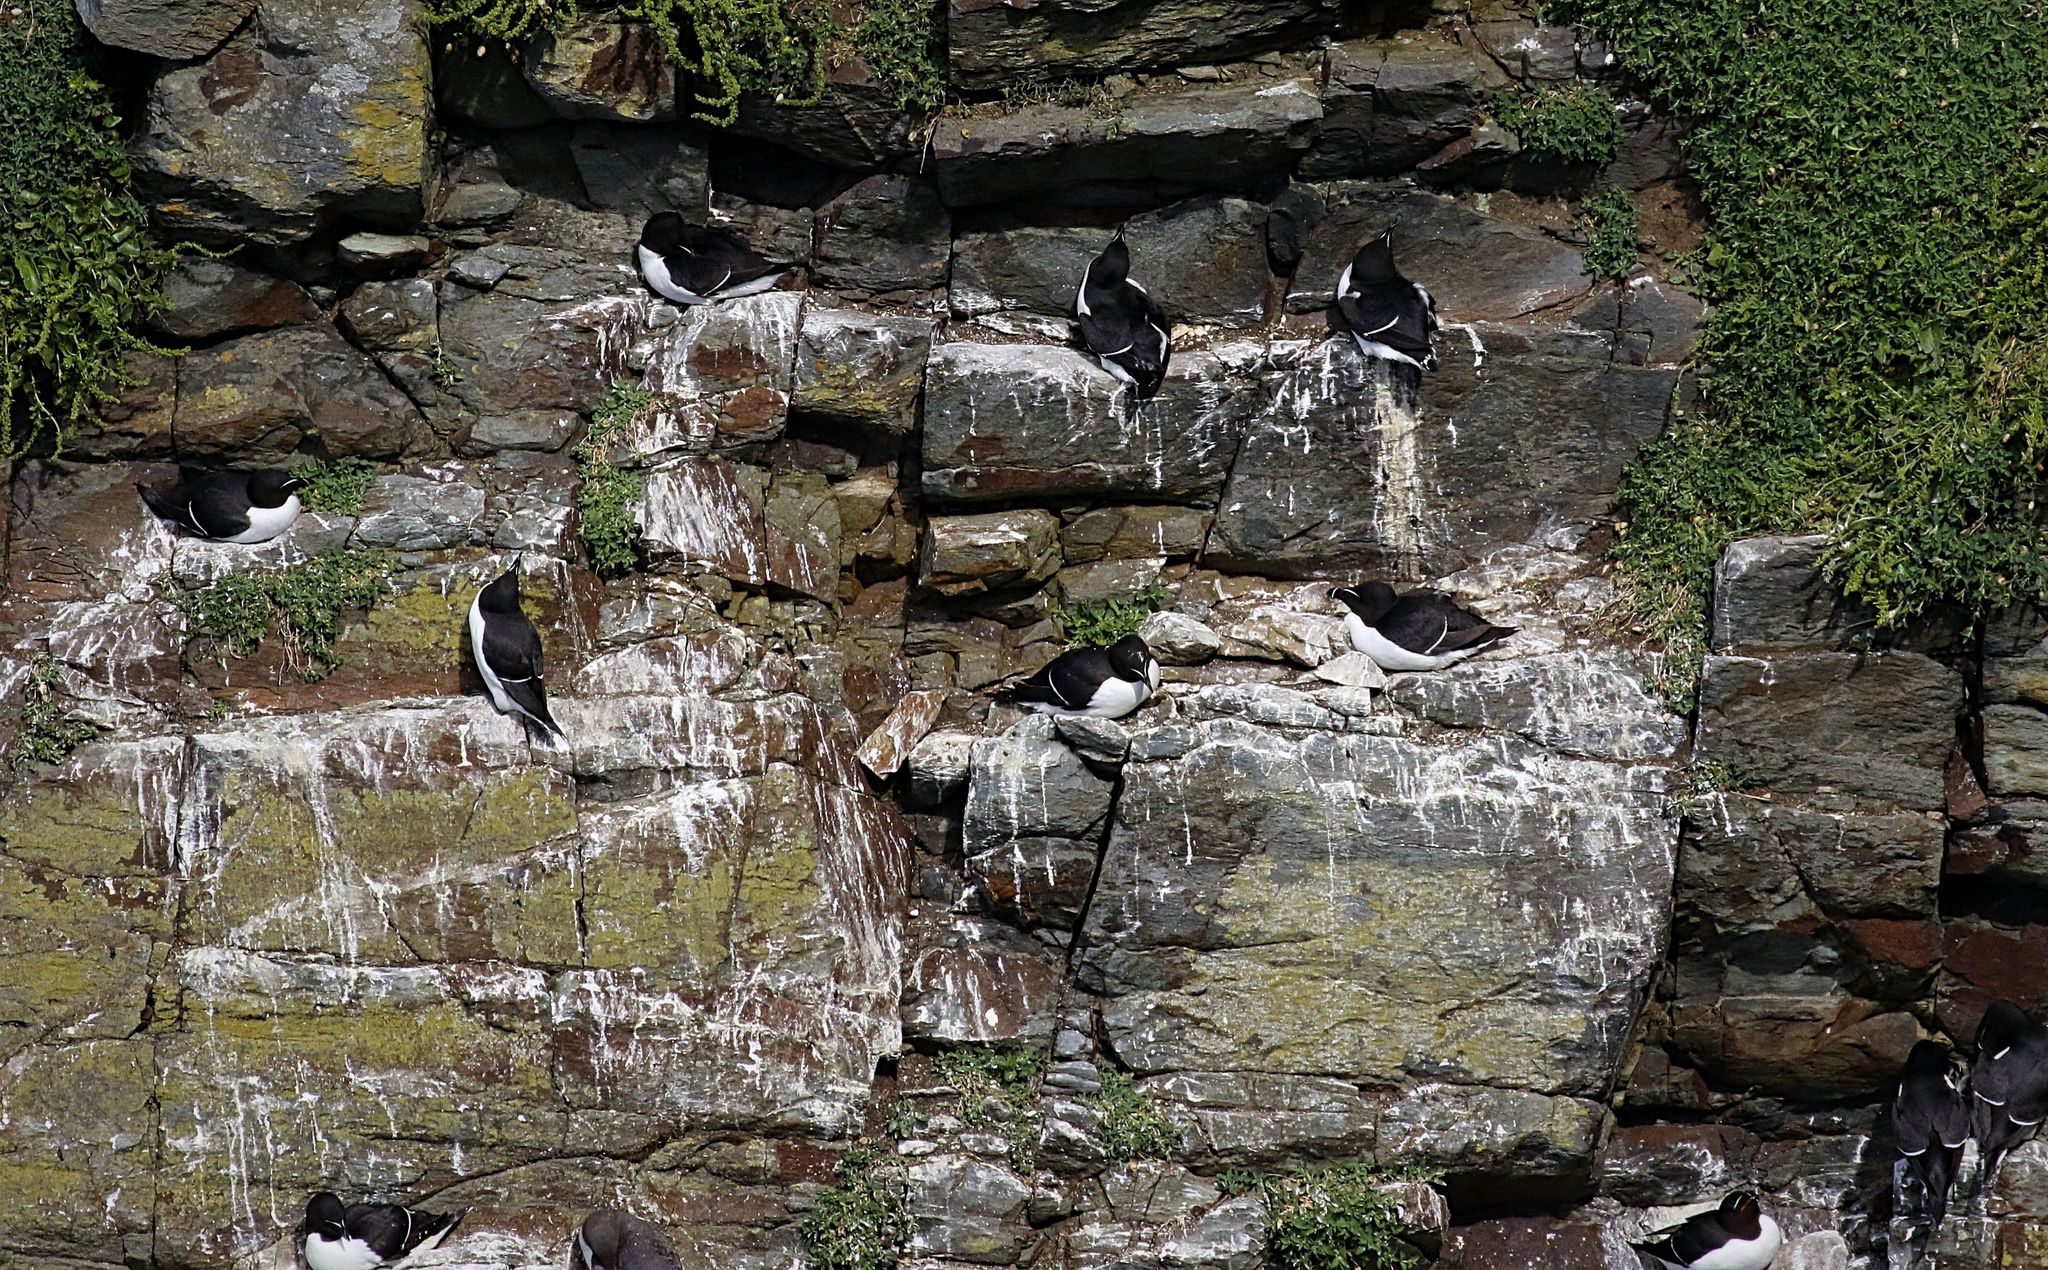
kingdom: Animalia
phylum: Chordata
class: Aves
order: Charadriiformes
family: Alcidae
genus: Alca
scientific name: Alca torda
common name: Razorbill
